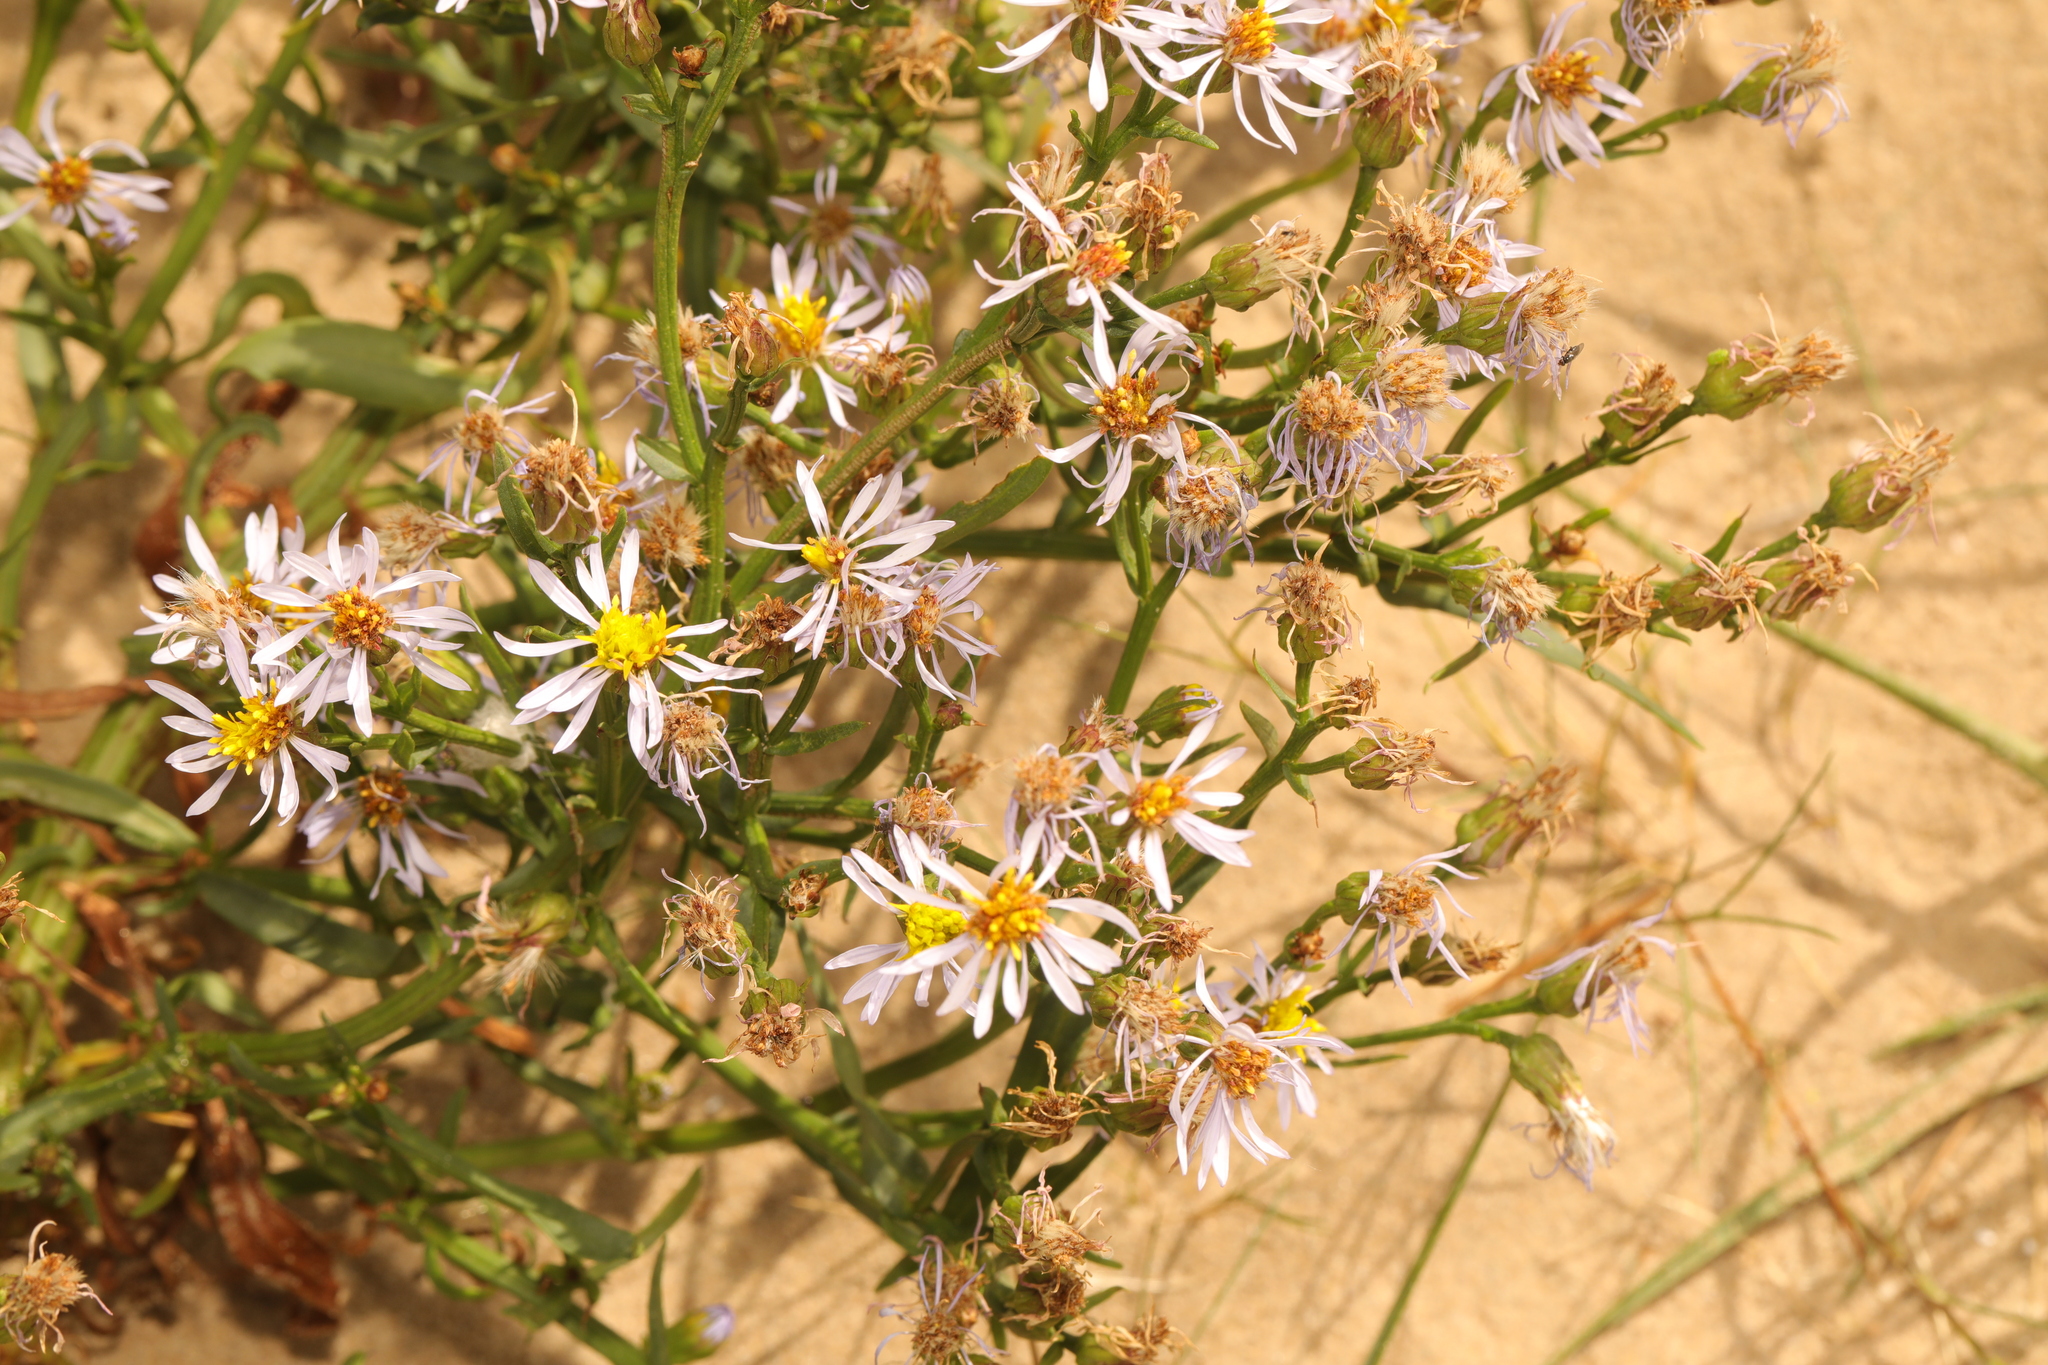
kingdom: Plantae
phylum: Tracheophyta
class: Magnoliopsida
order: Asterales
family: Asteraceae
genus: Tripolium
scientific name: Tripolium pannonicum
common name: Sea aster
